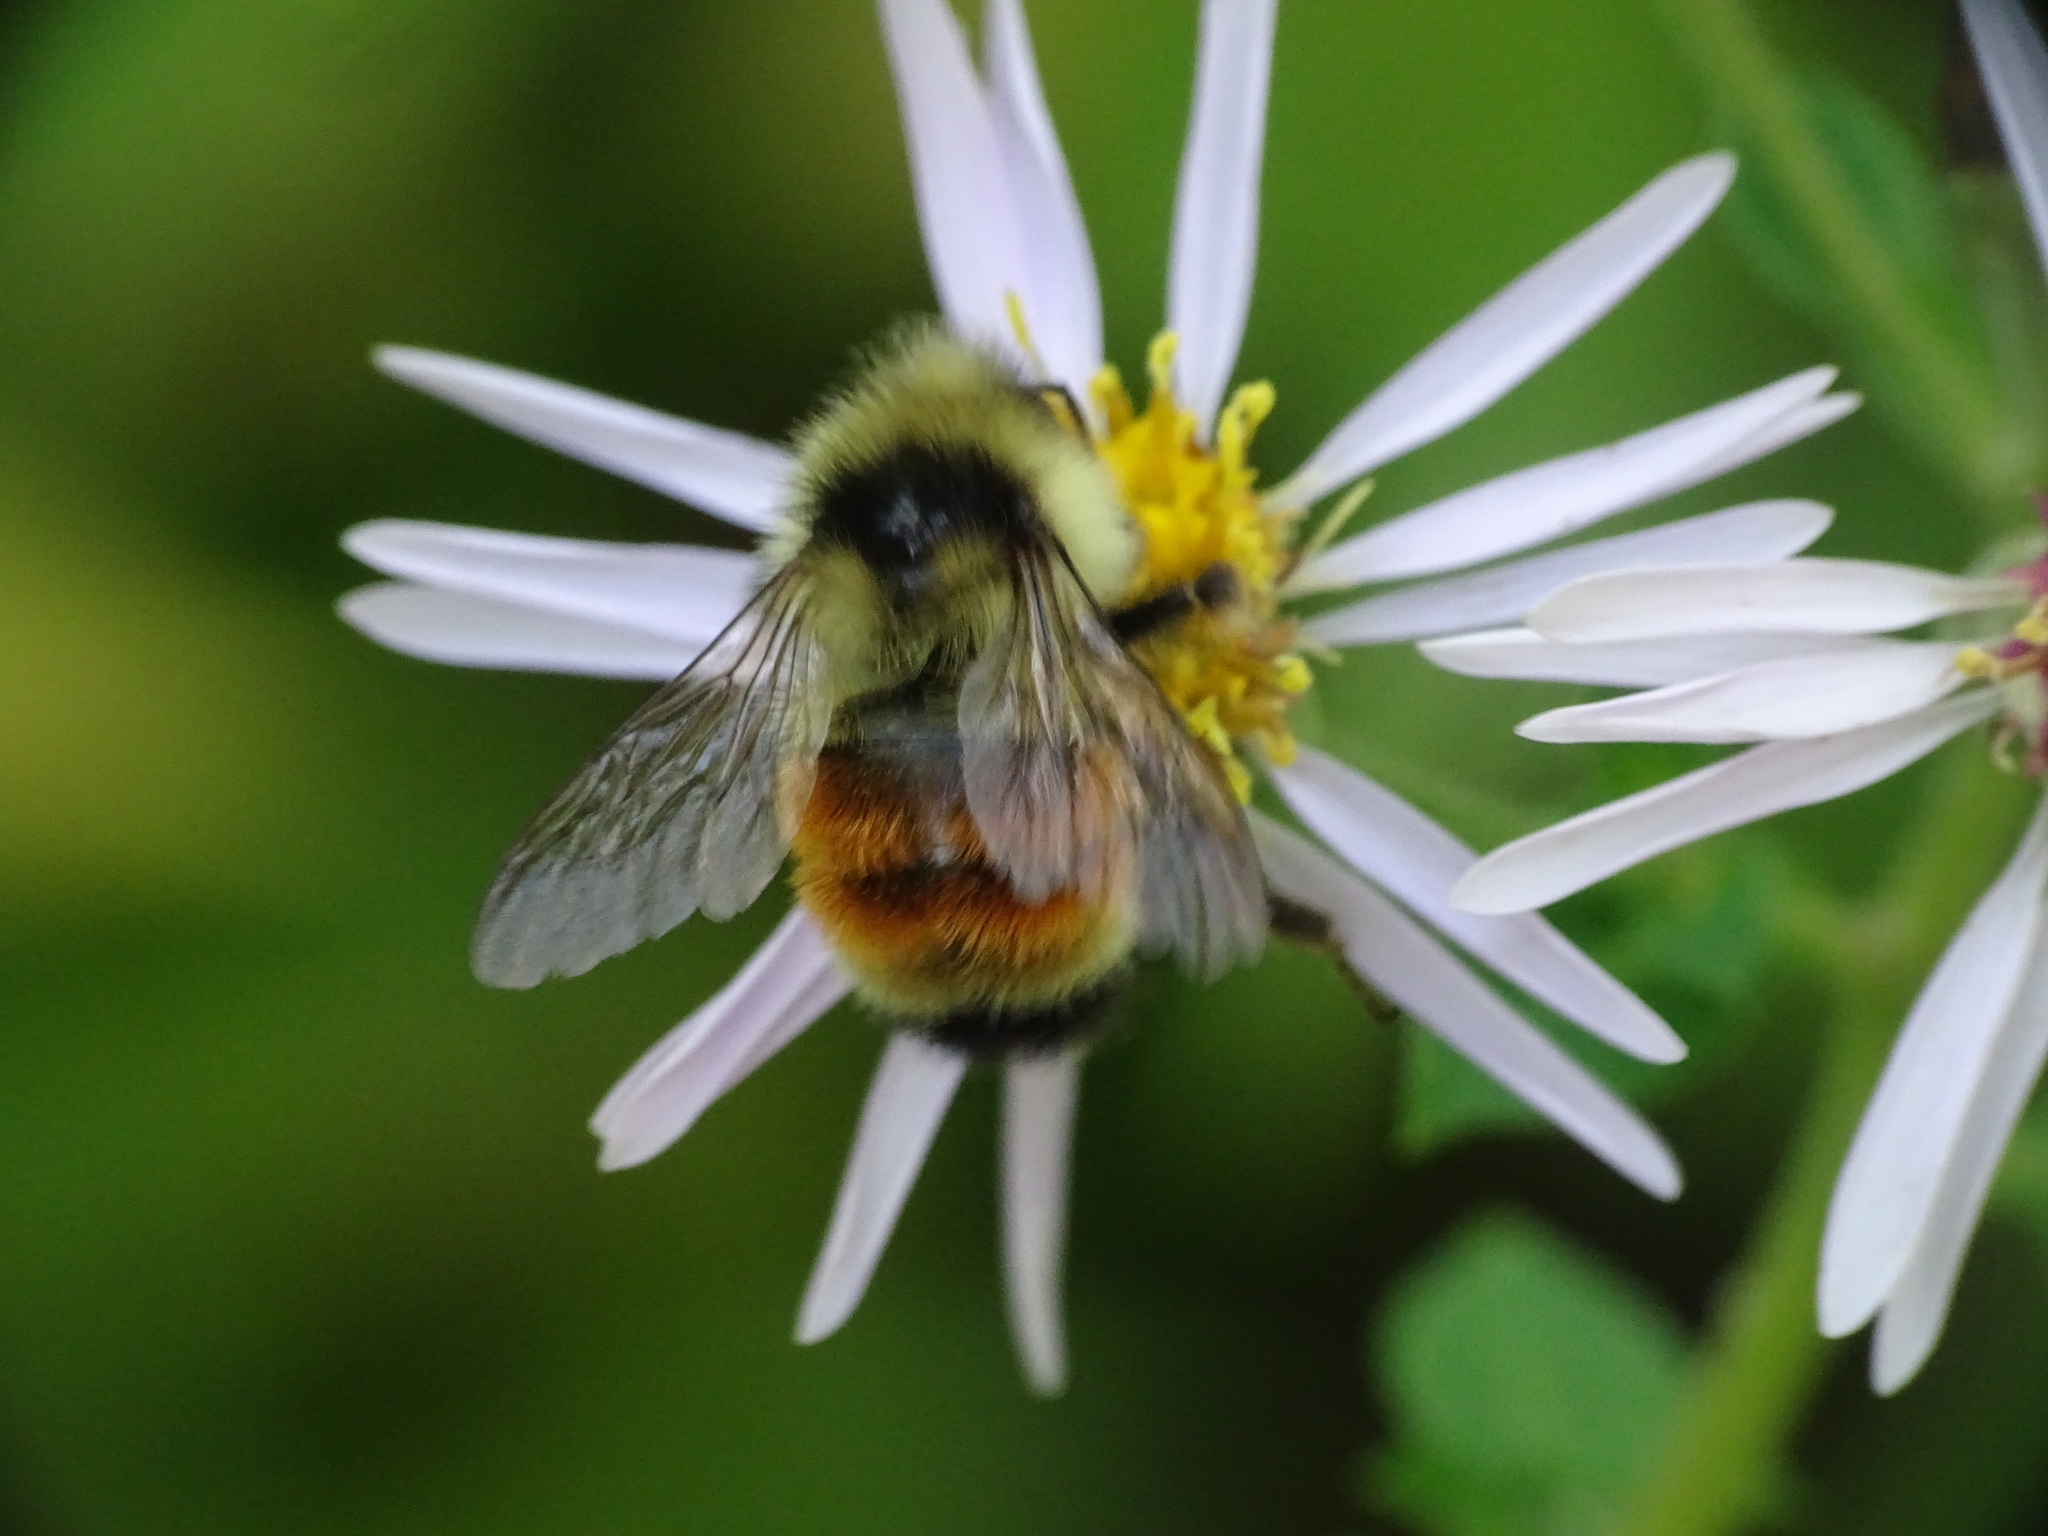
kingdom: Animalia
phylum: Arthropoda
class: Insecta
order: Hymenoptera
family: Apidae
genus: Bombus
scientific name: Bombus ternarius
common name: Tri-colored bumble bee
